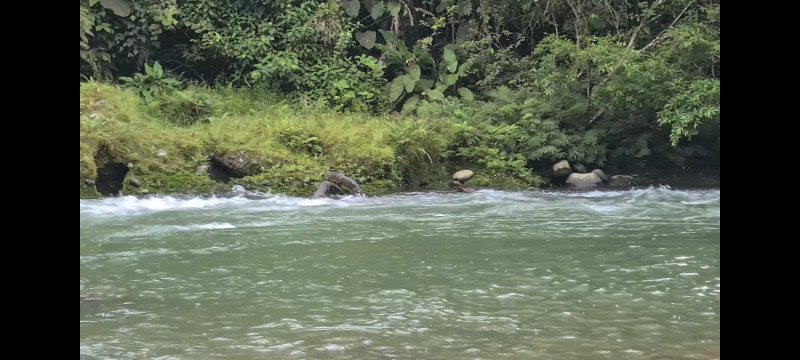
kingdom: Animalia
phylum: Chordata
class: Mammalia
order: Carnivora
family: Mustelidae
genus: Lontra
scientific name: Lontra longicaudis
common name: Neotropical otter
